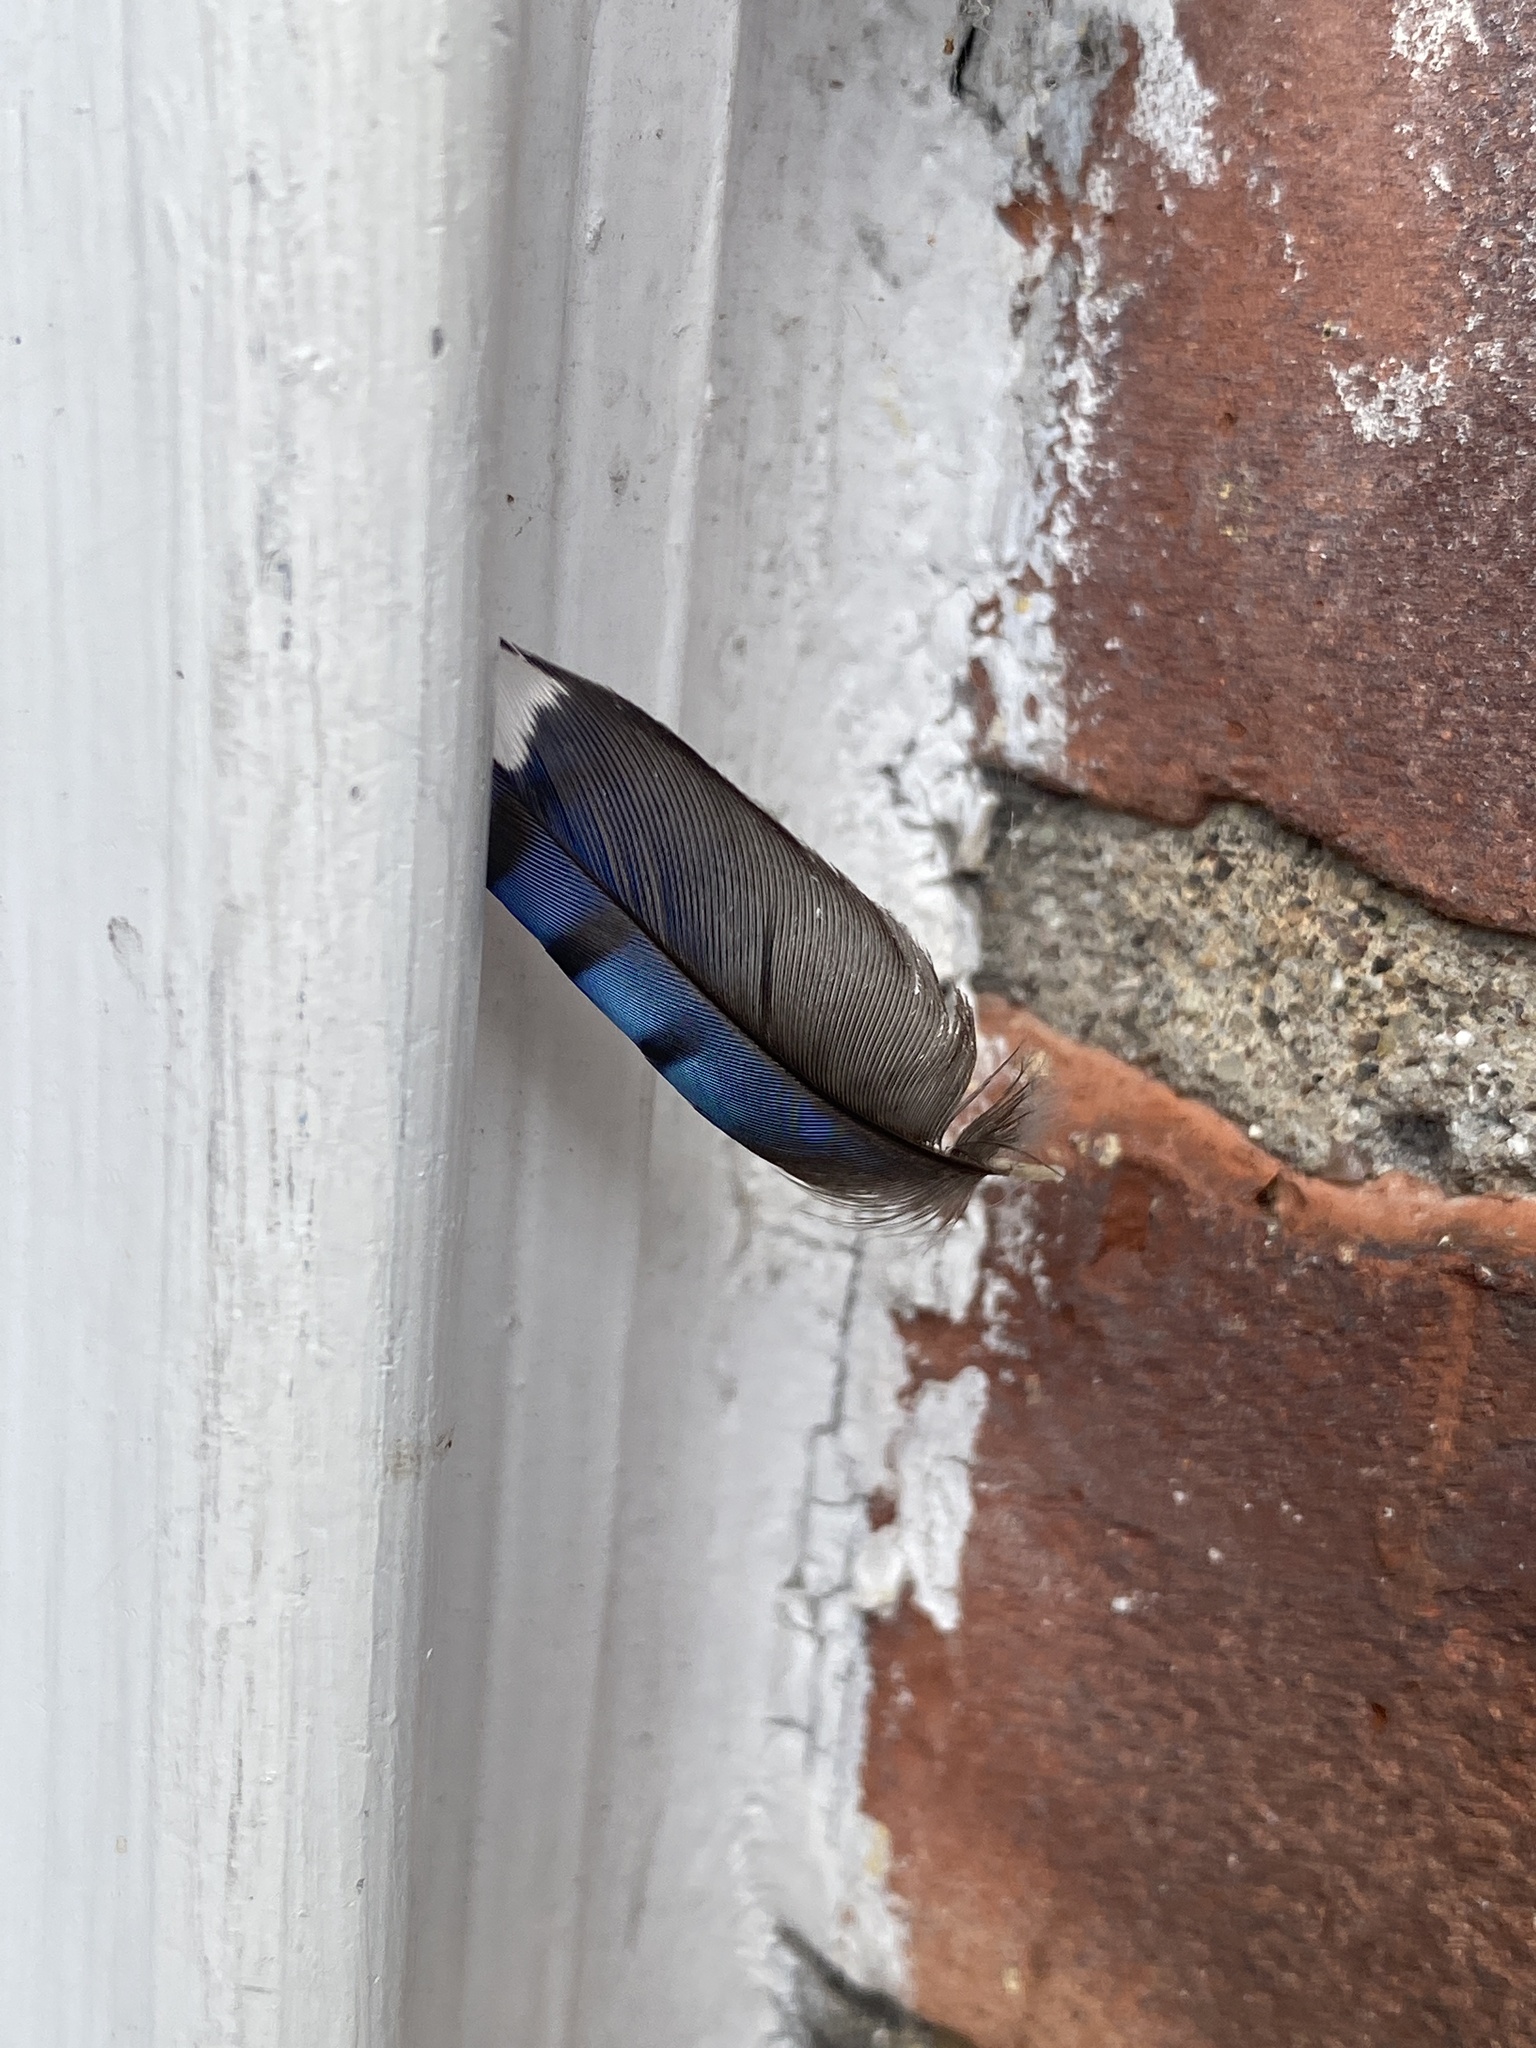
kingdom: Animalia
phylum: Chordata
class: Aves
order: Passeriformes
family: Corvidae
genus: Cyanocitta
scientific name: Cyanocitta cristata
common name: Blue jay
